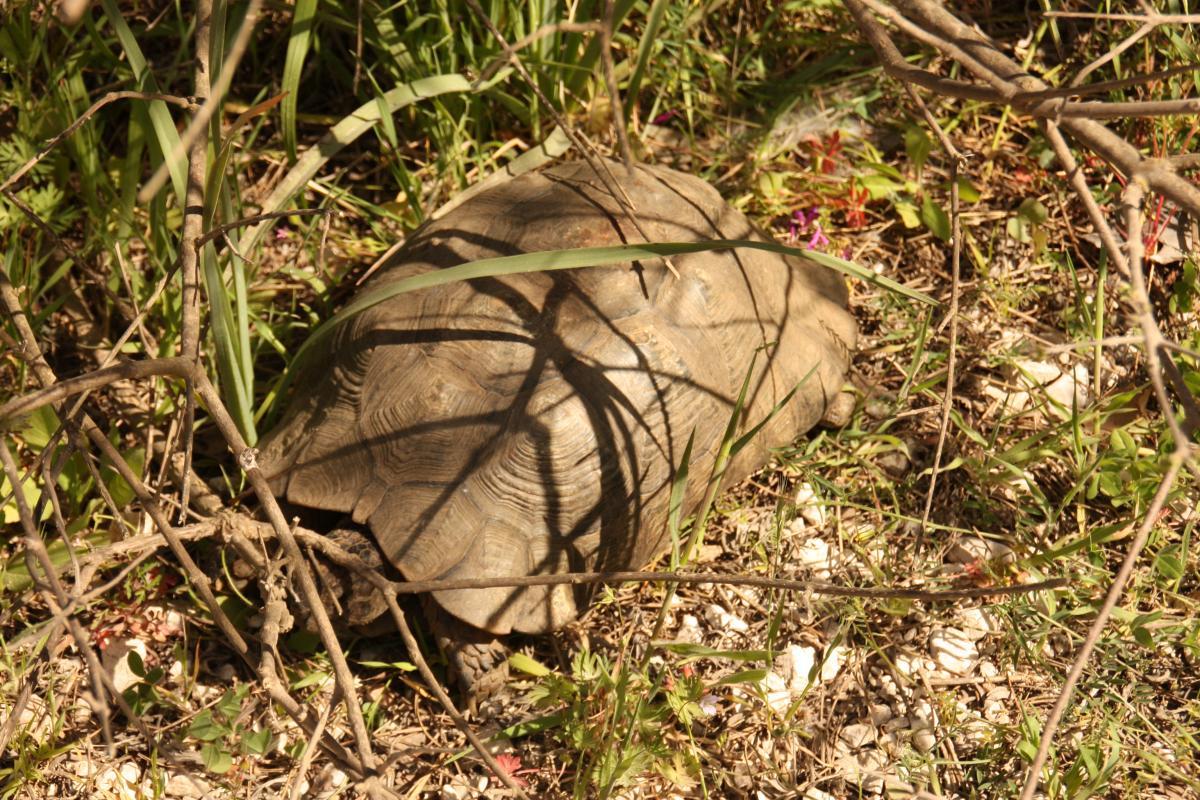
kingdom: Animalia
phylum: Chordata
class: Testudines
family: Testudinidae
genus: Testudo
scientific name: Testudo marginata
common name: Marginated tortoise
